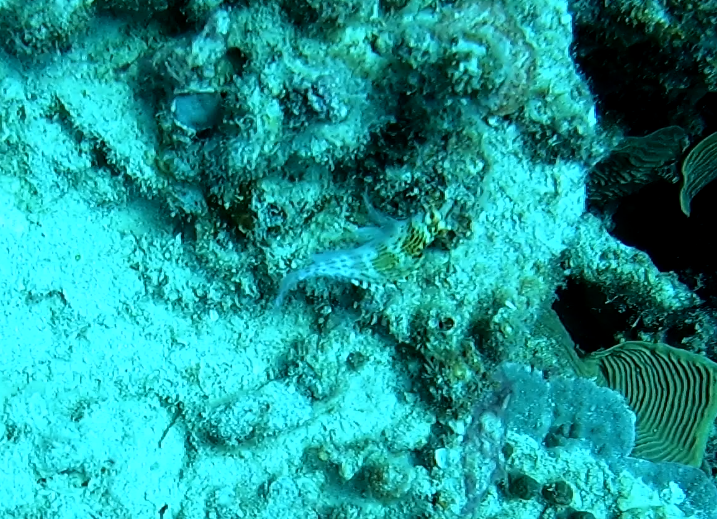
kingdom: Animalia
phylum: Chordata
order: Perciformes
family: Cirrhitidae
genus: Cirrhitichthys
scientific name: Cirrhitichthys falco
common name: Coral hawkfish
